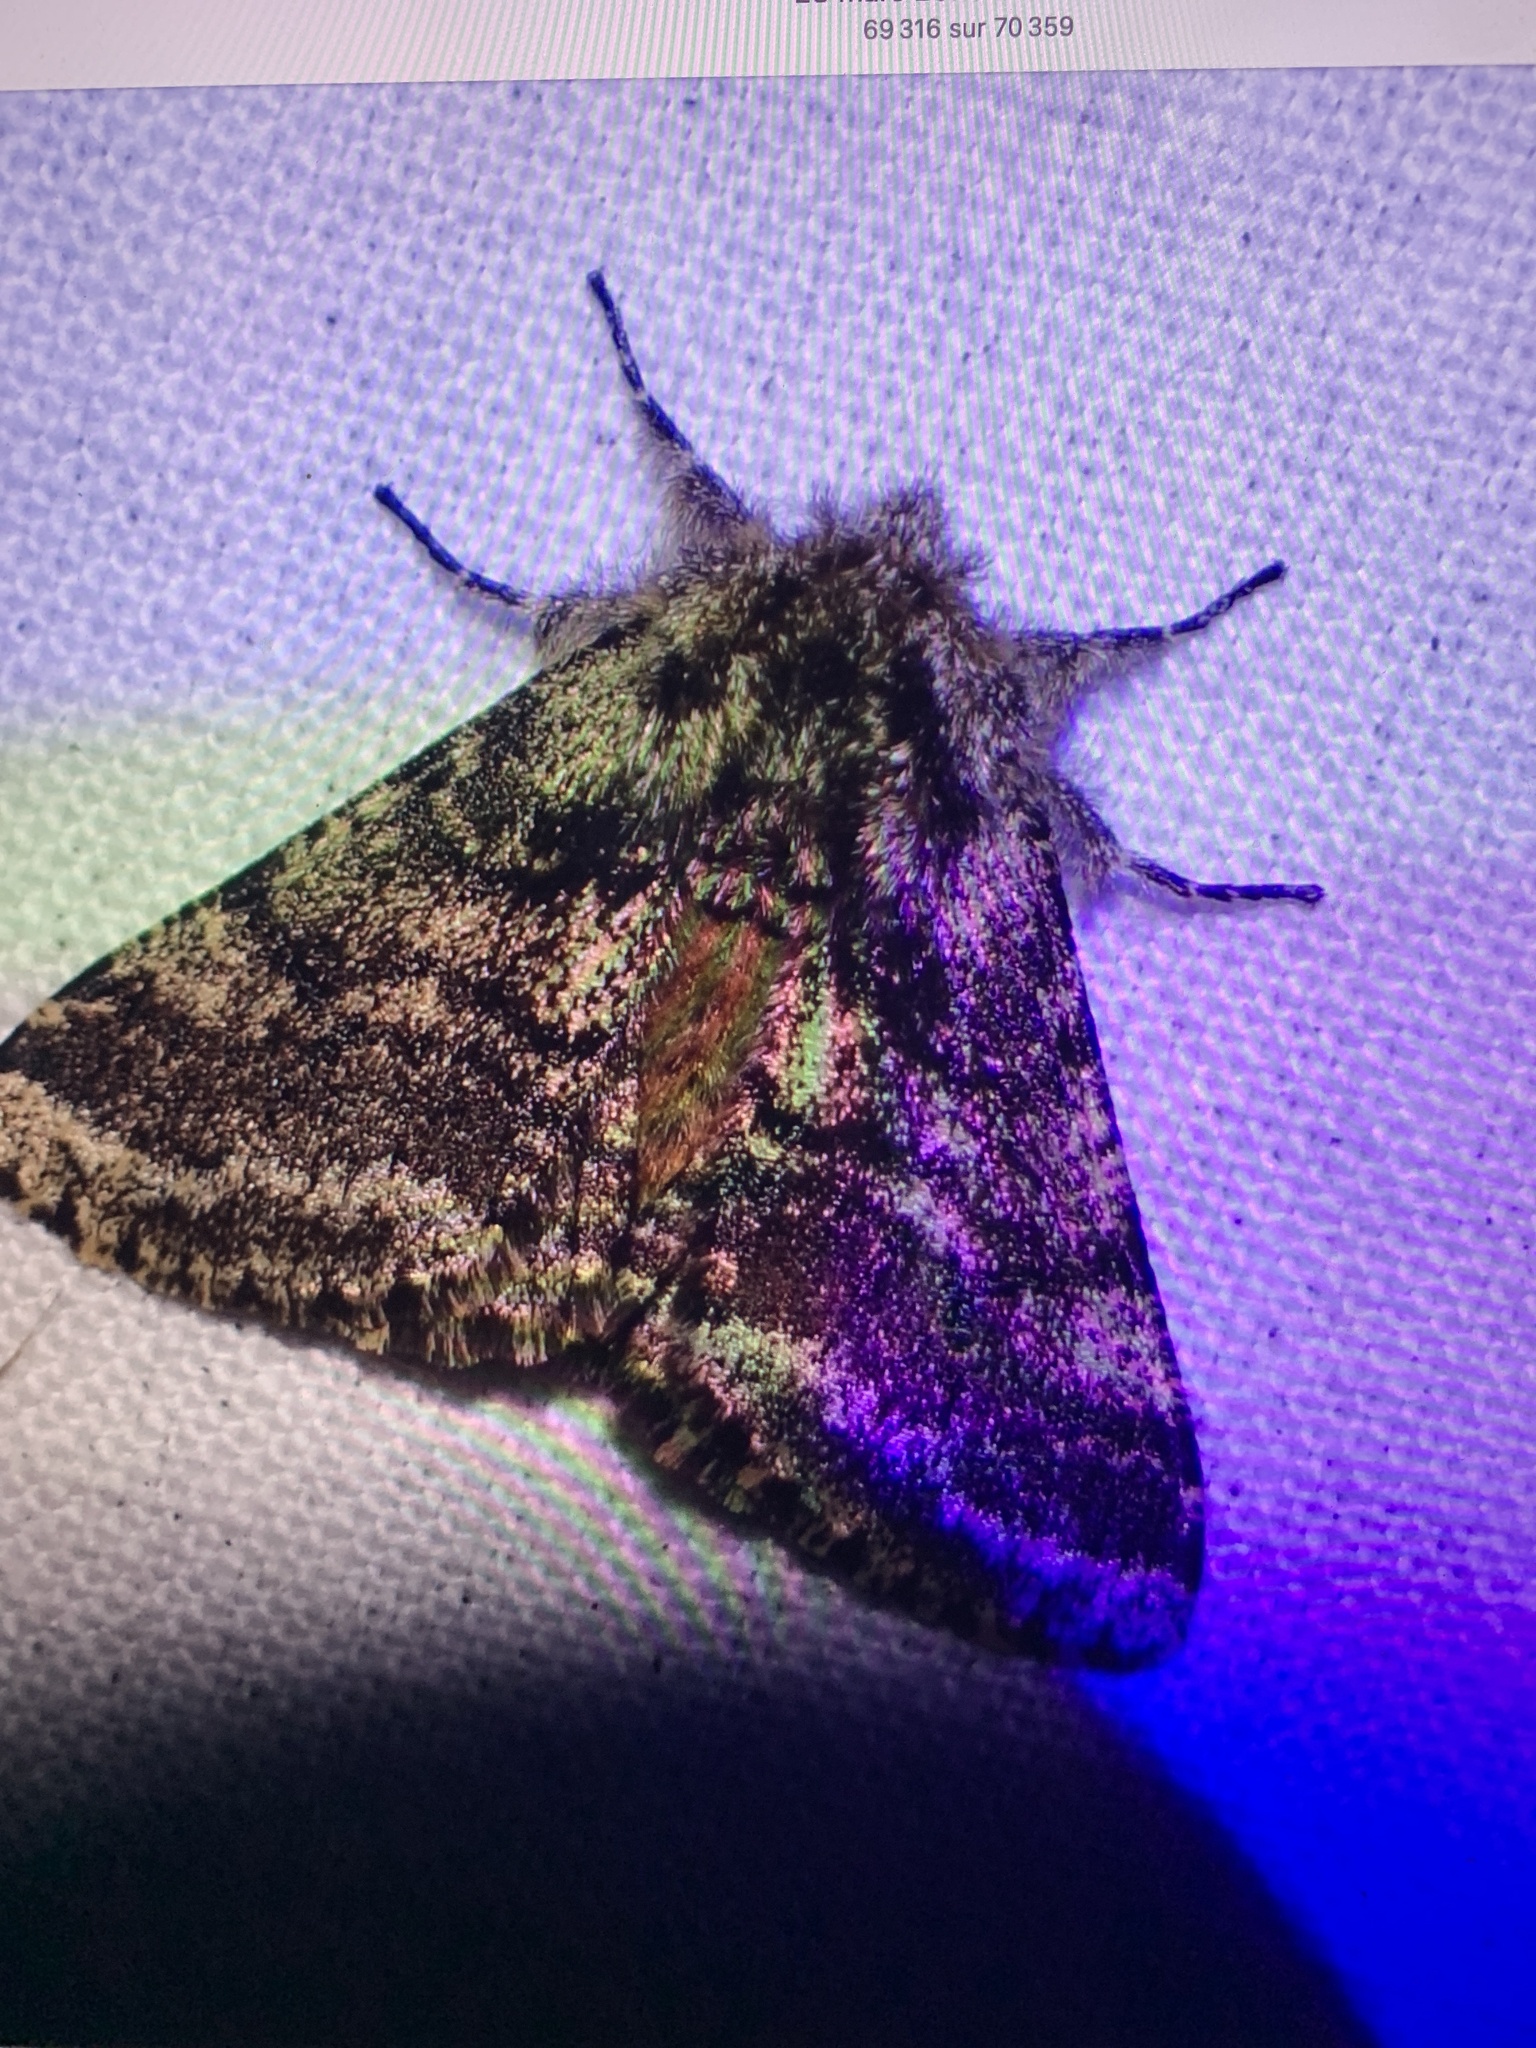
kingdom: Animalia
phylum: Arthropoda
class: Insecta
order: Lepidoptera
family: Geometridae
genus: Lycia
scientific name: Lycia hirtaria
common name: Brindled beauty
